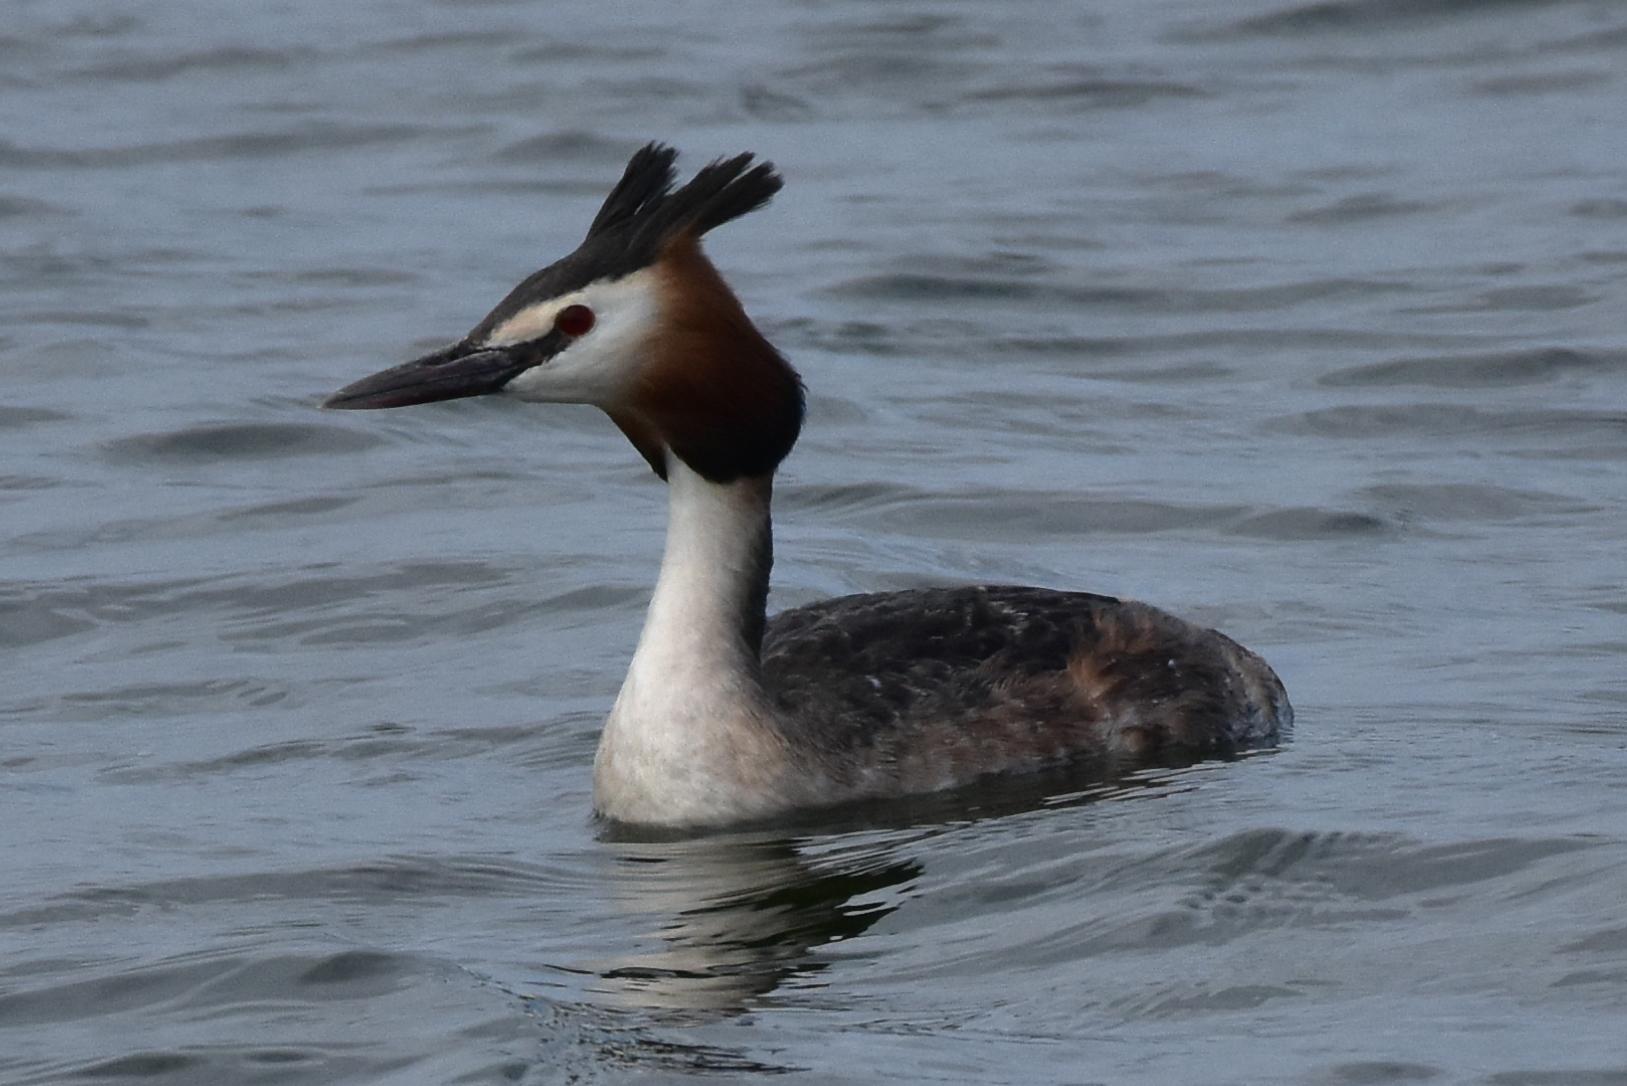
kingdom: Animalia
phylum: Chordata
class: Aves
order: Podicipediformes
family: Podicipedidae
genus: Podiceps
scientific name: Podiceps cristatus
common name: Great crested grebe
